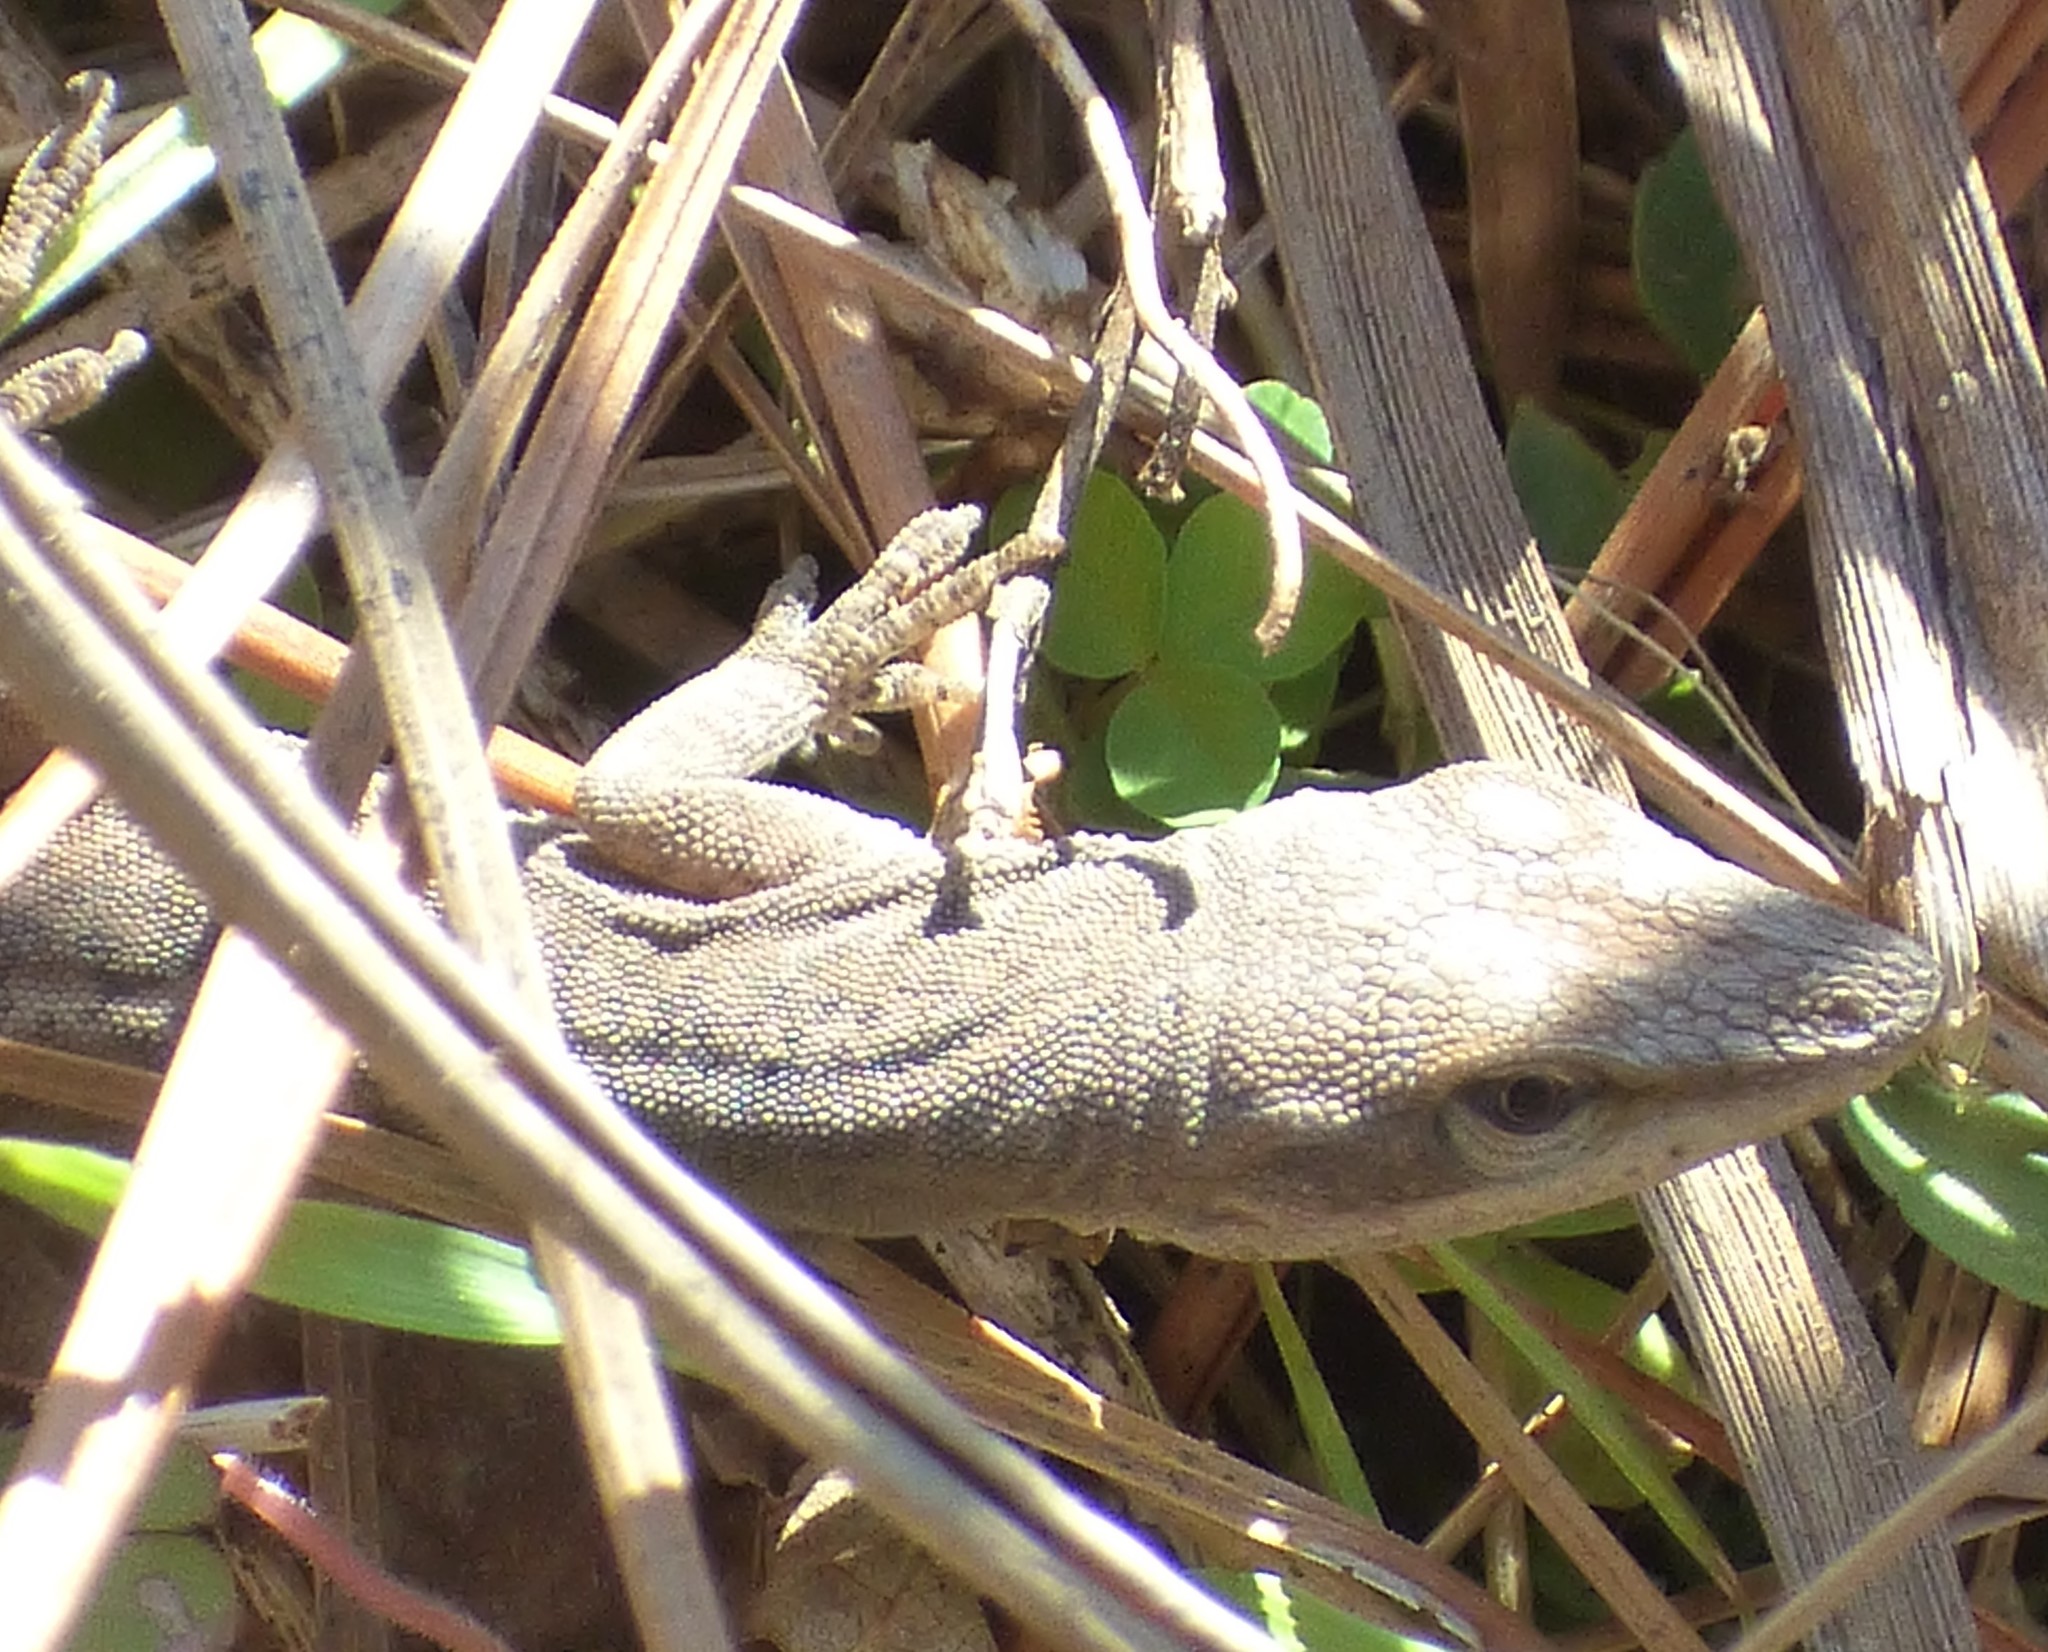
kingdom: Animalia
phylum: Chordata
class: Squamata
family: Dactyloidae
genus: Anolis
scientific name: Anolis carolinensis
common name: Green anole
